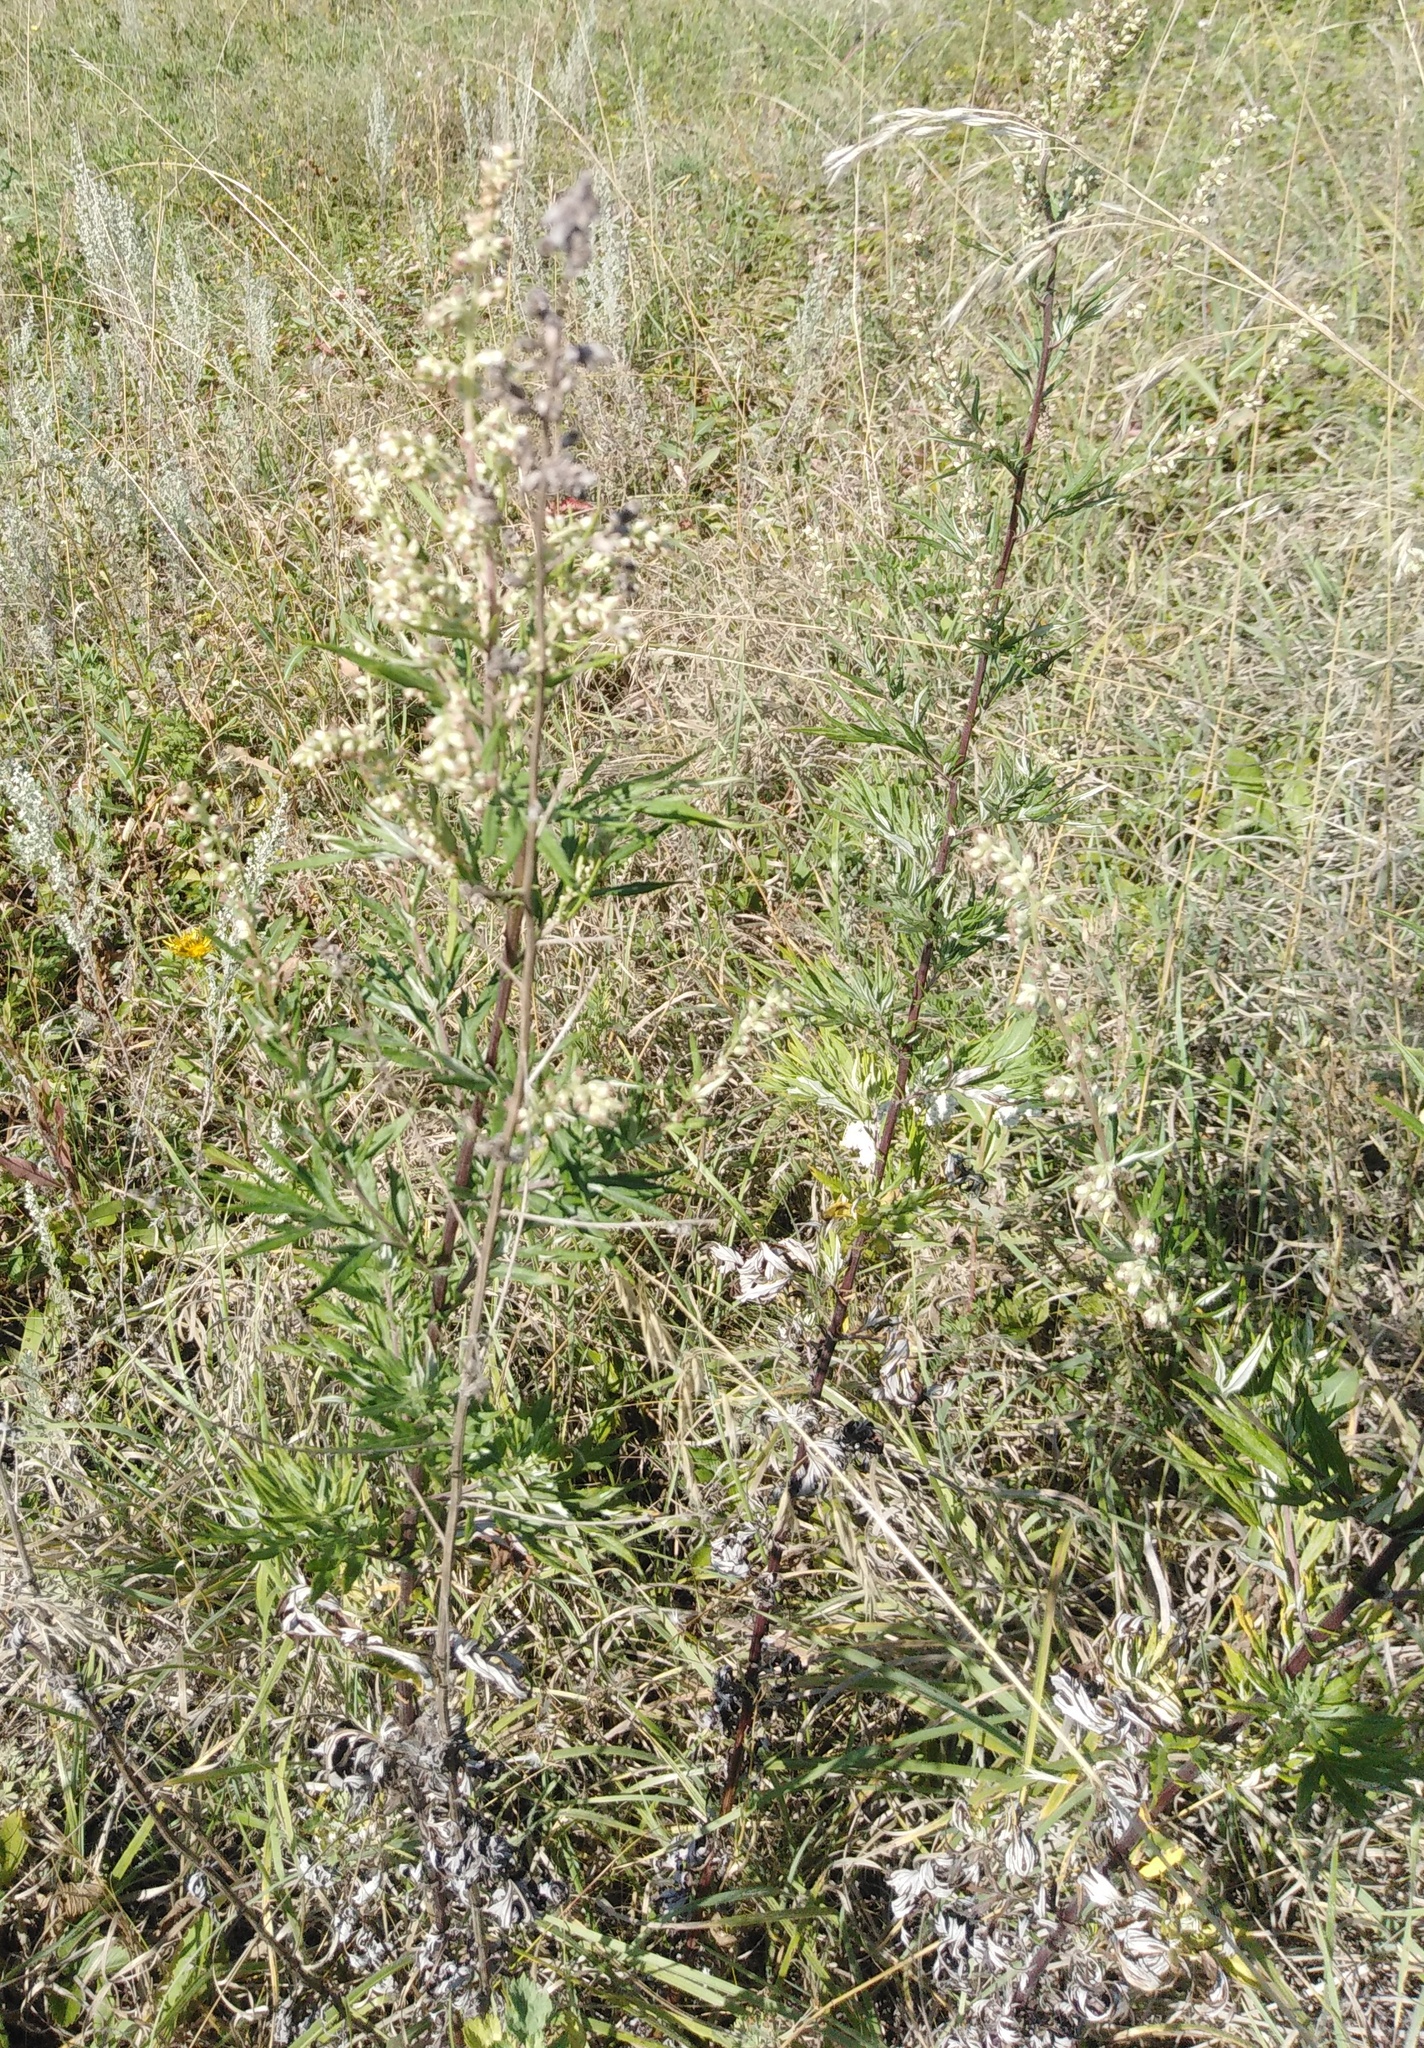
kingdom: Plantae
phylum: Tracheophyta
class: Magnoliopsida
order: Asterales
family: Asteraceae
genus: Artemisia
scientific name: Artemisia vulgaris
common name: Mugwort
